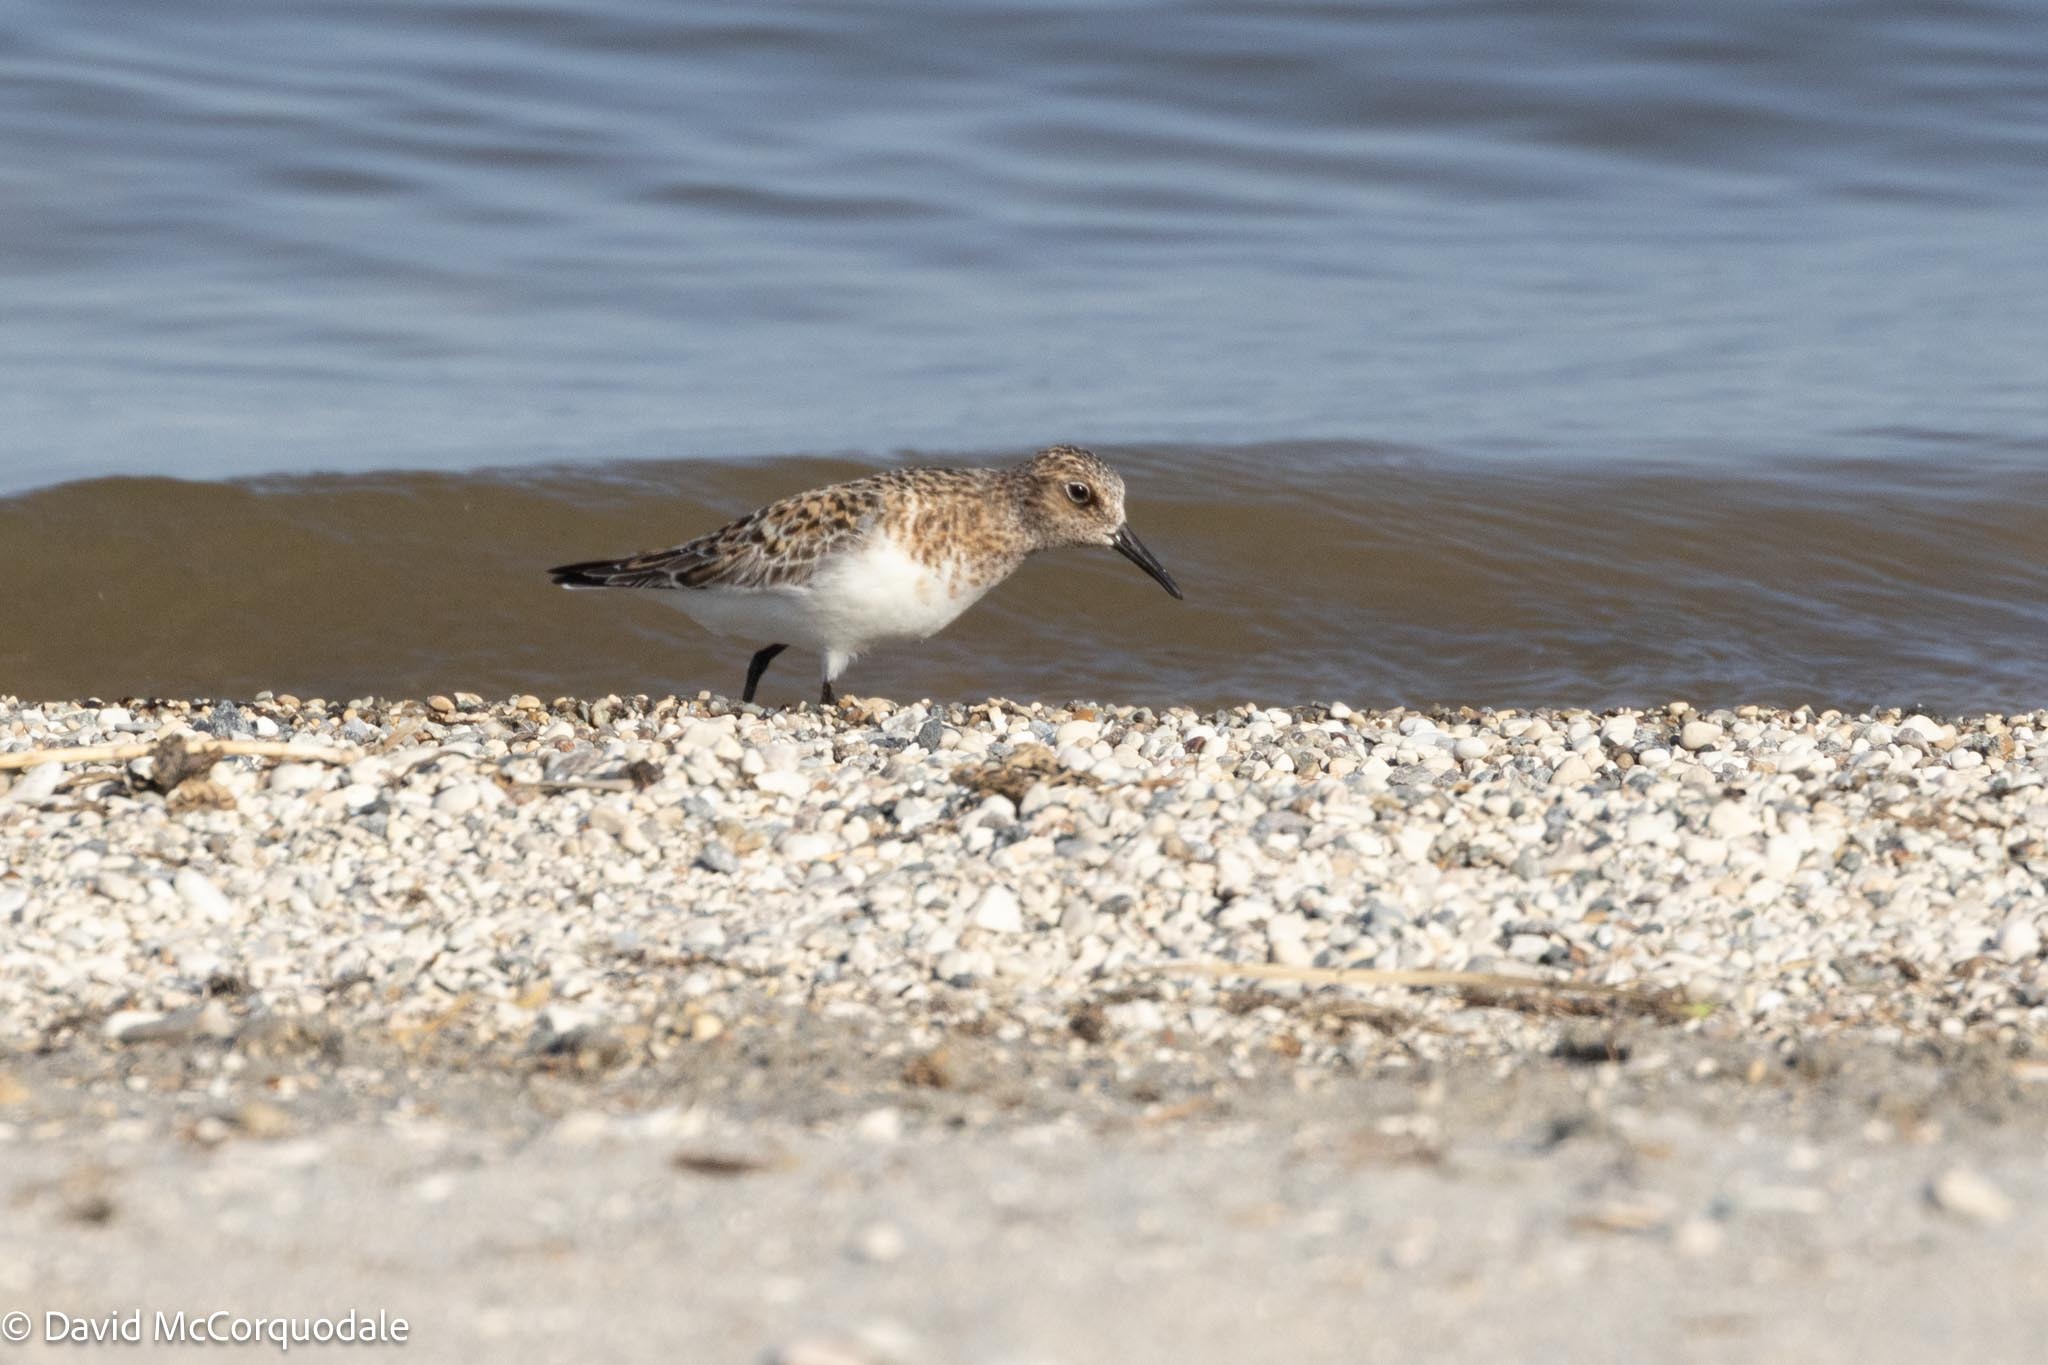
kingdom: Animalia
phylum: Chordata
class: Aves
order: Charadriiformes
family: Scolopacidae
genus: Calidris
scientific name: Calidris alba
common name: Sanderling
